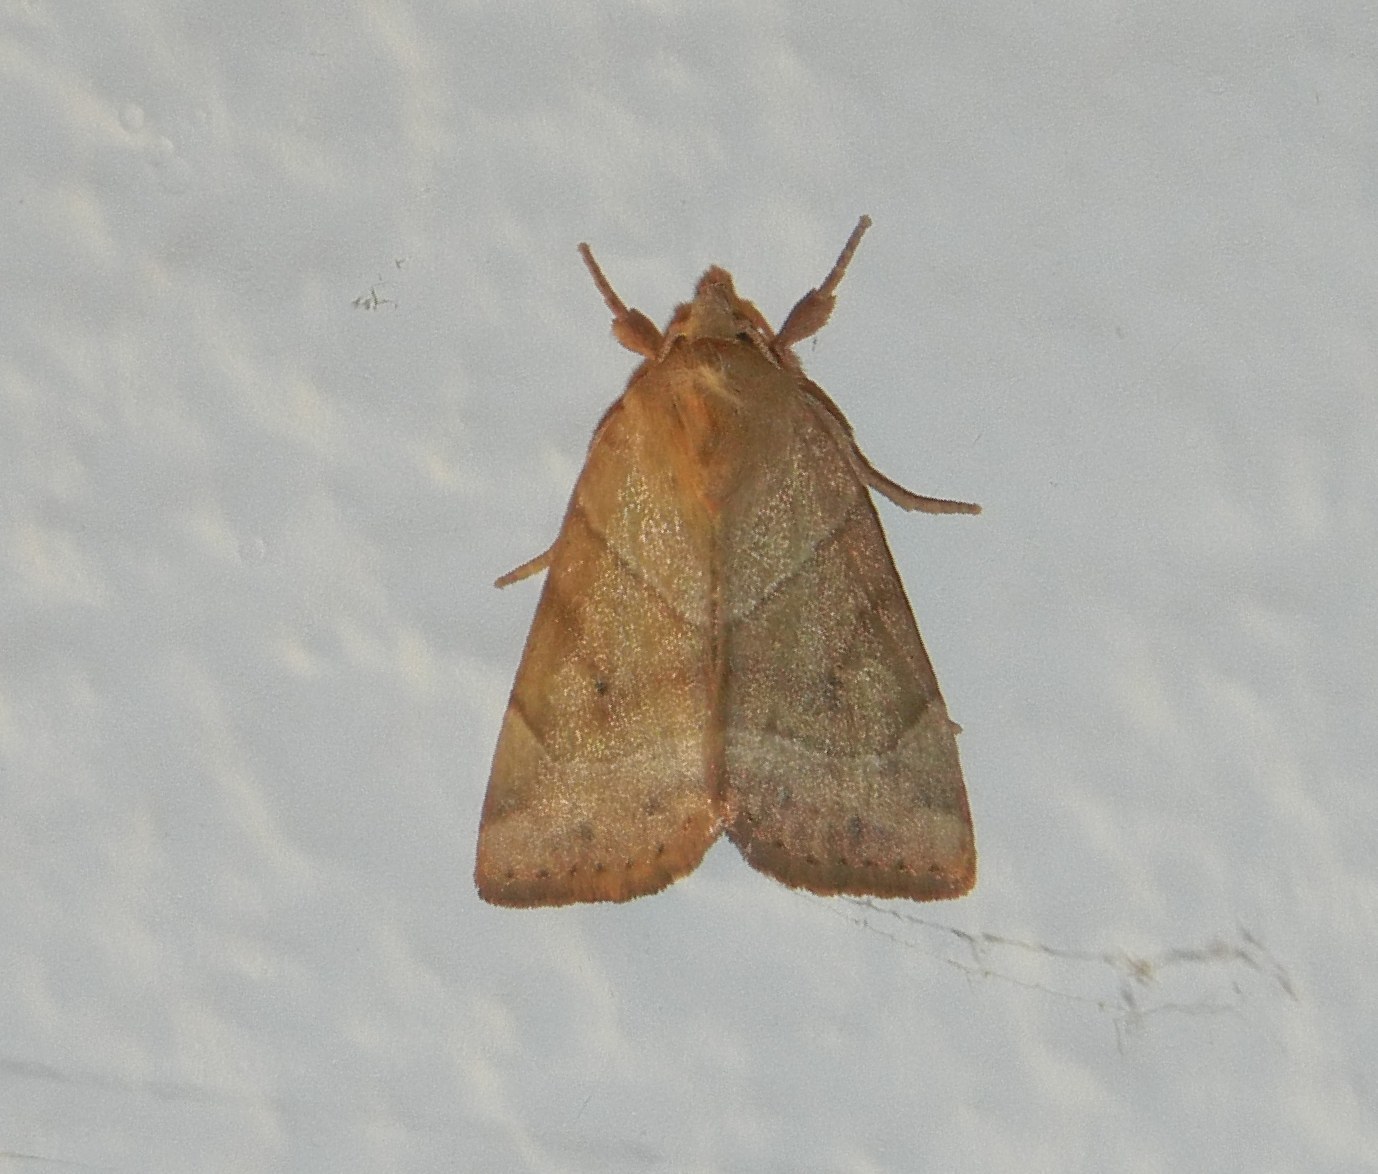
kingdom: Animalia
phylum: Arthropoda
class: Insecta
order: Lepidoptera
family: Noctuidae
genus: Cosmia
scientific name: Cosmia trapezina
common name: Dun-bar
